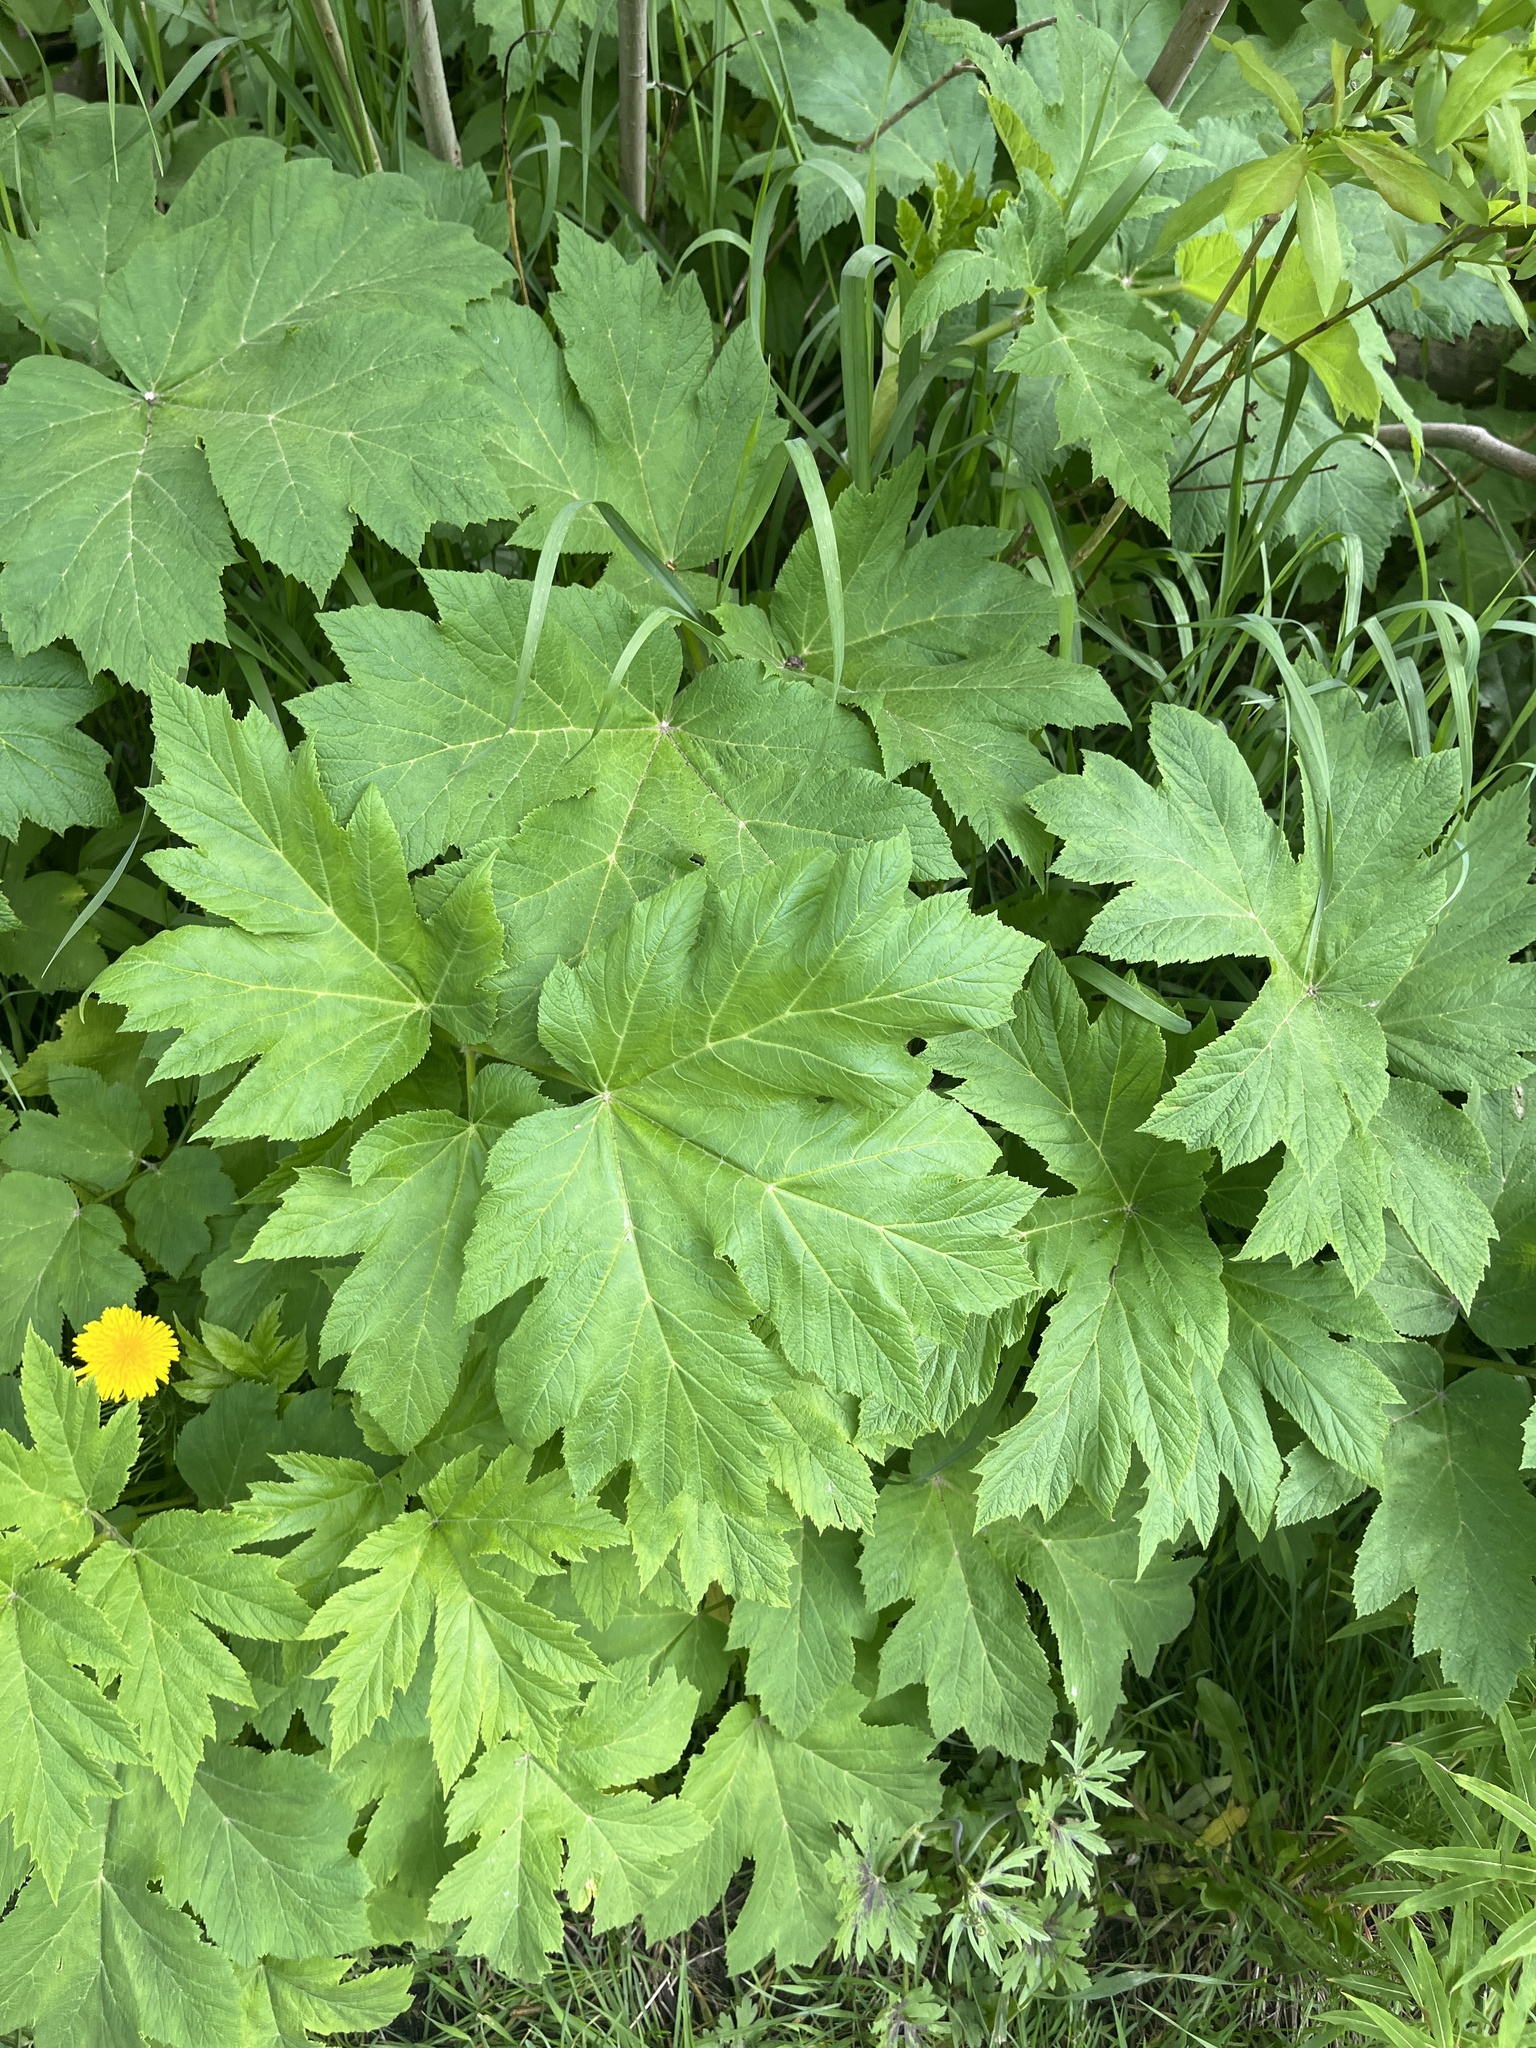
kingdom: Plantae
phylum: Tracheophyta
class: Magnoliopsida
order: Apiales
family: Apiaceae
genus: Heracleum
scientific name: Heracleum maximum
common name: American cow parsnip
